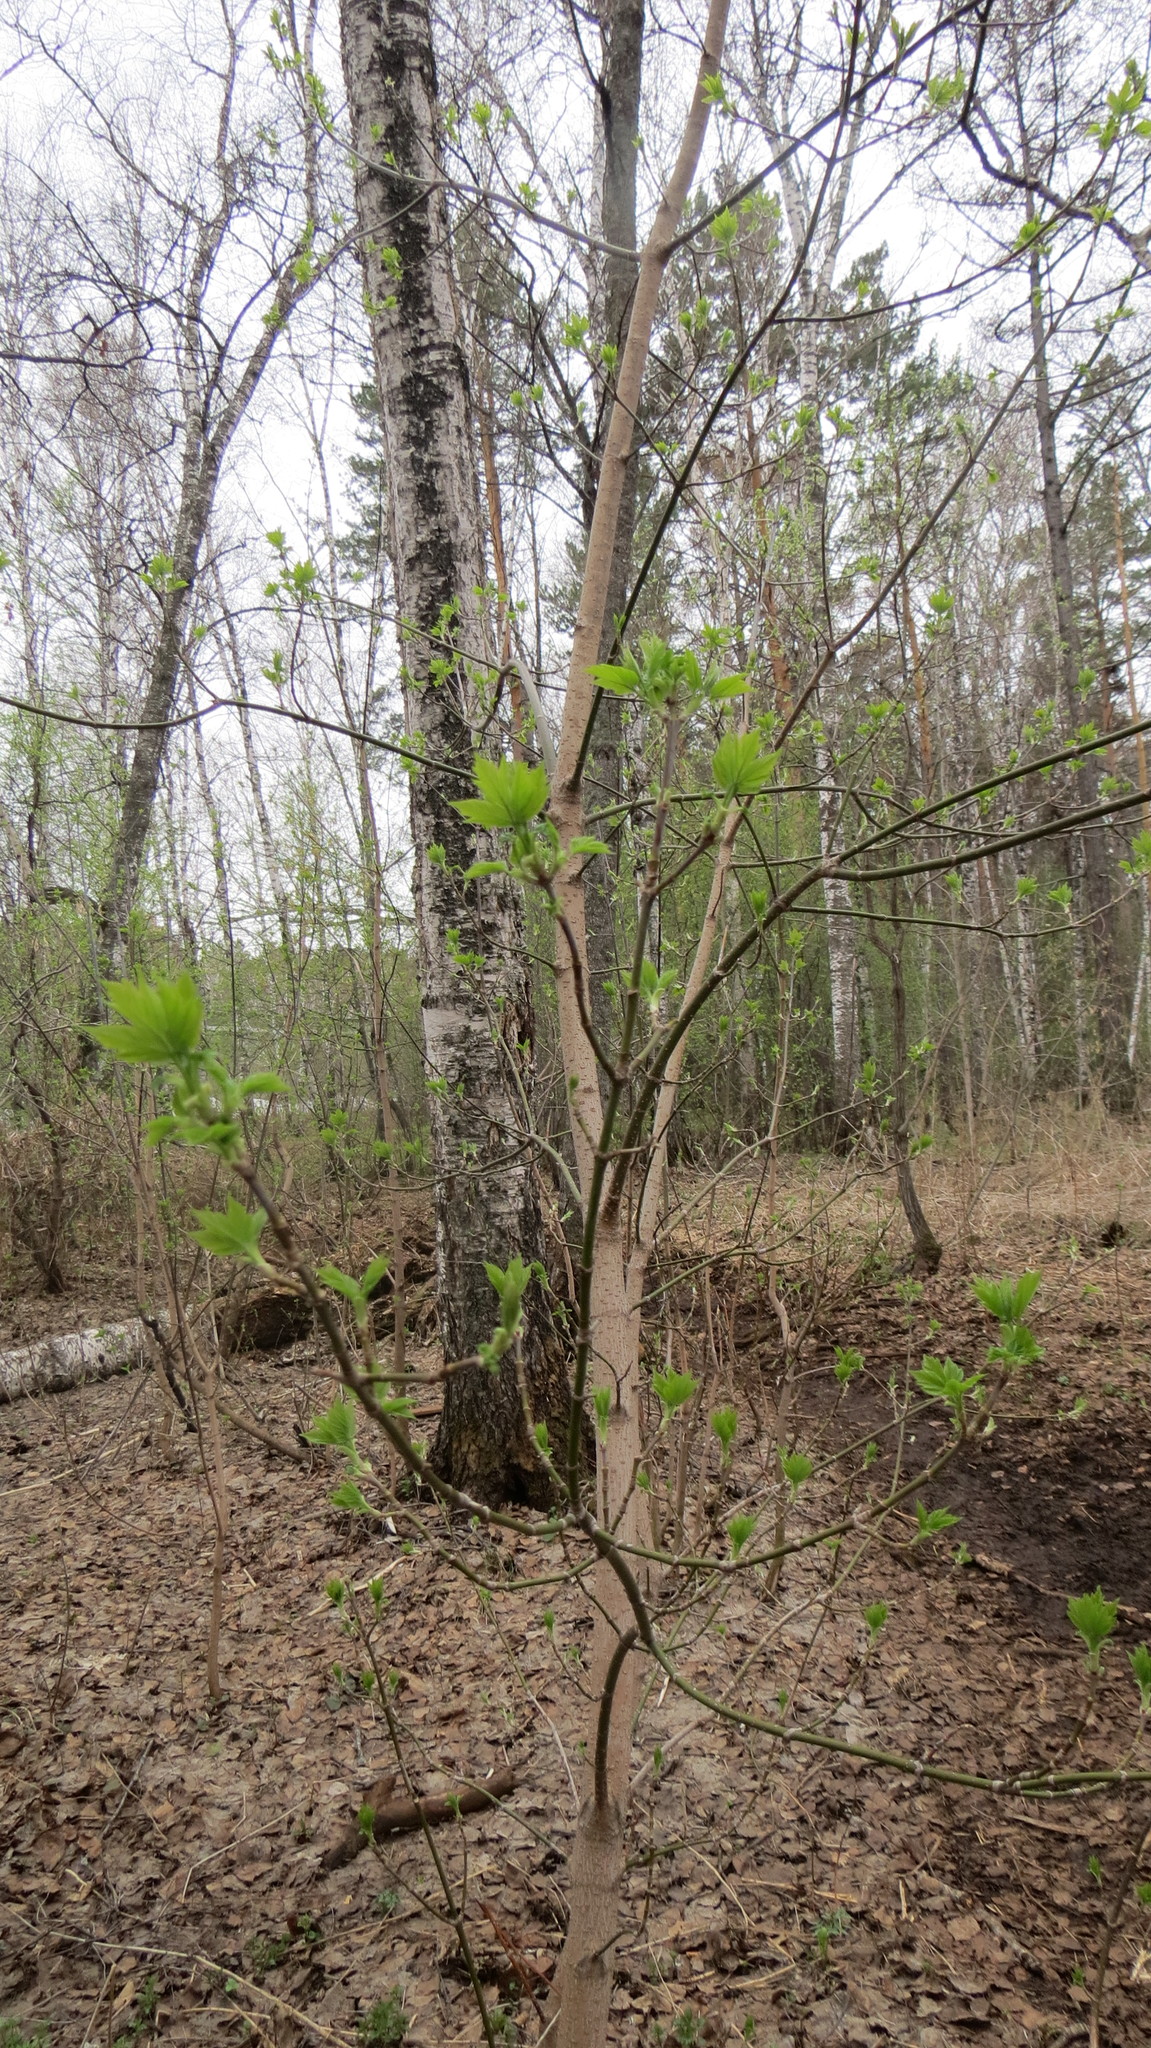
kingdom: Plantae
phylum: Tracheophyta
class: Magnoliopsida
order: Sapindales
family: Sapindaceae
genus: Acer
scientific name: Acer negundo
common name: Ashleaf maple
